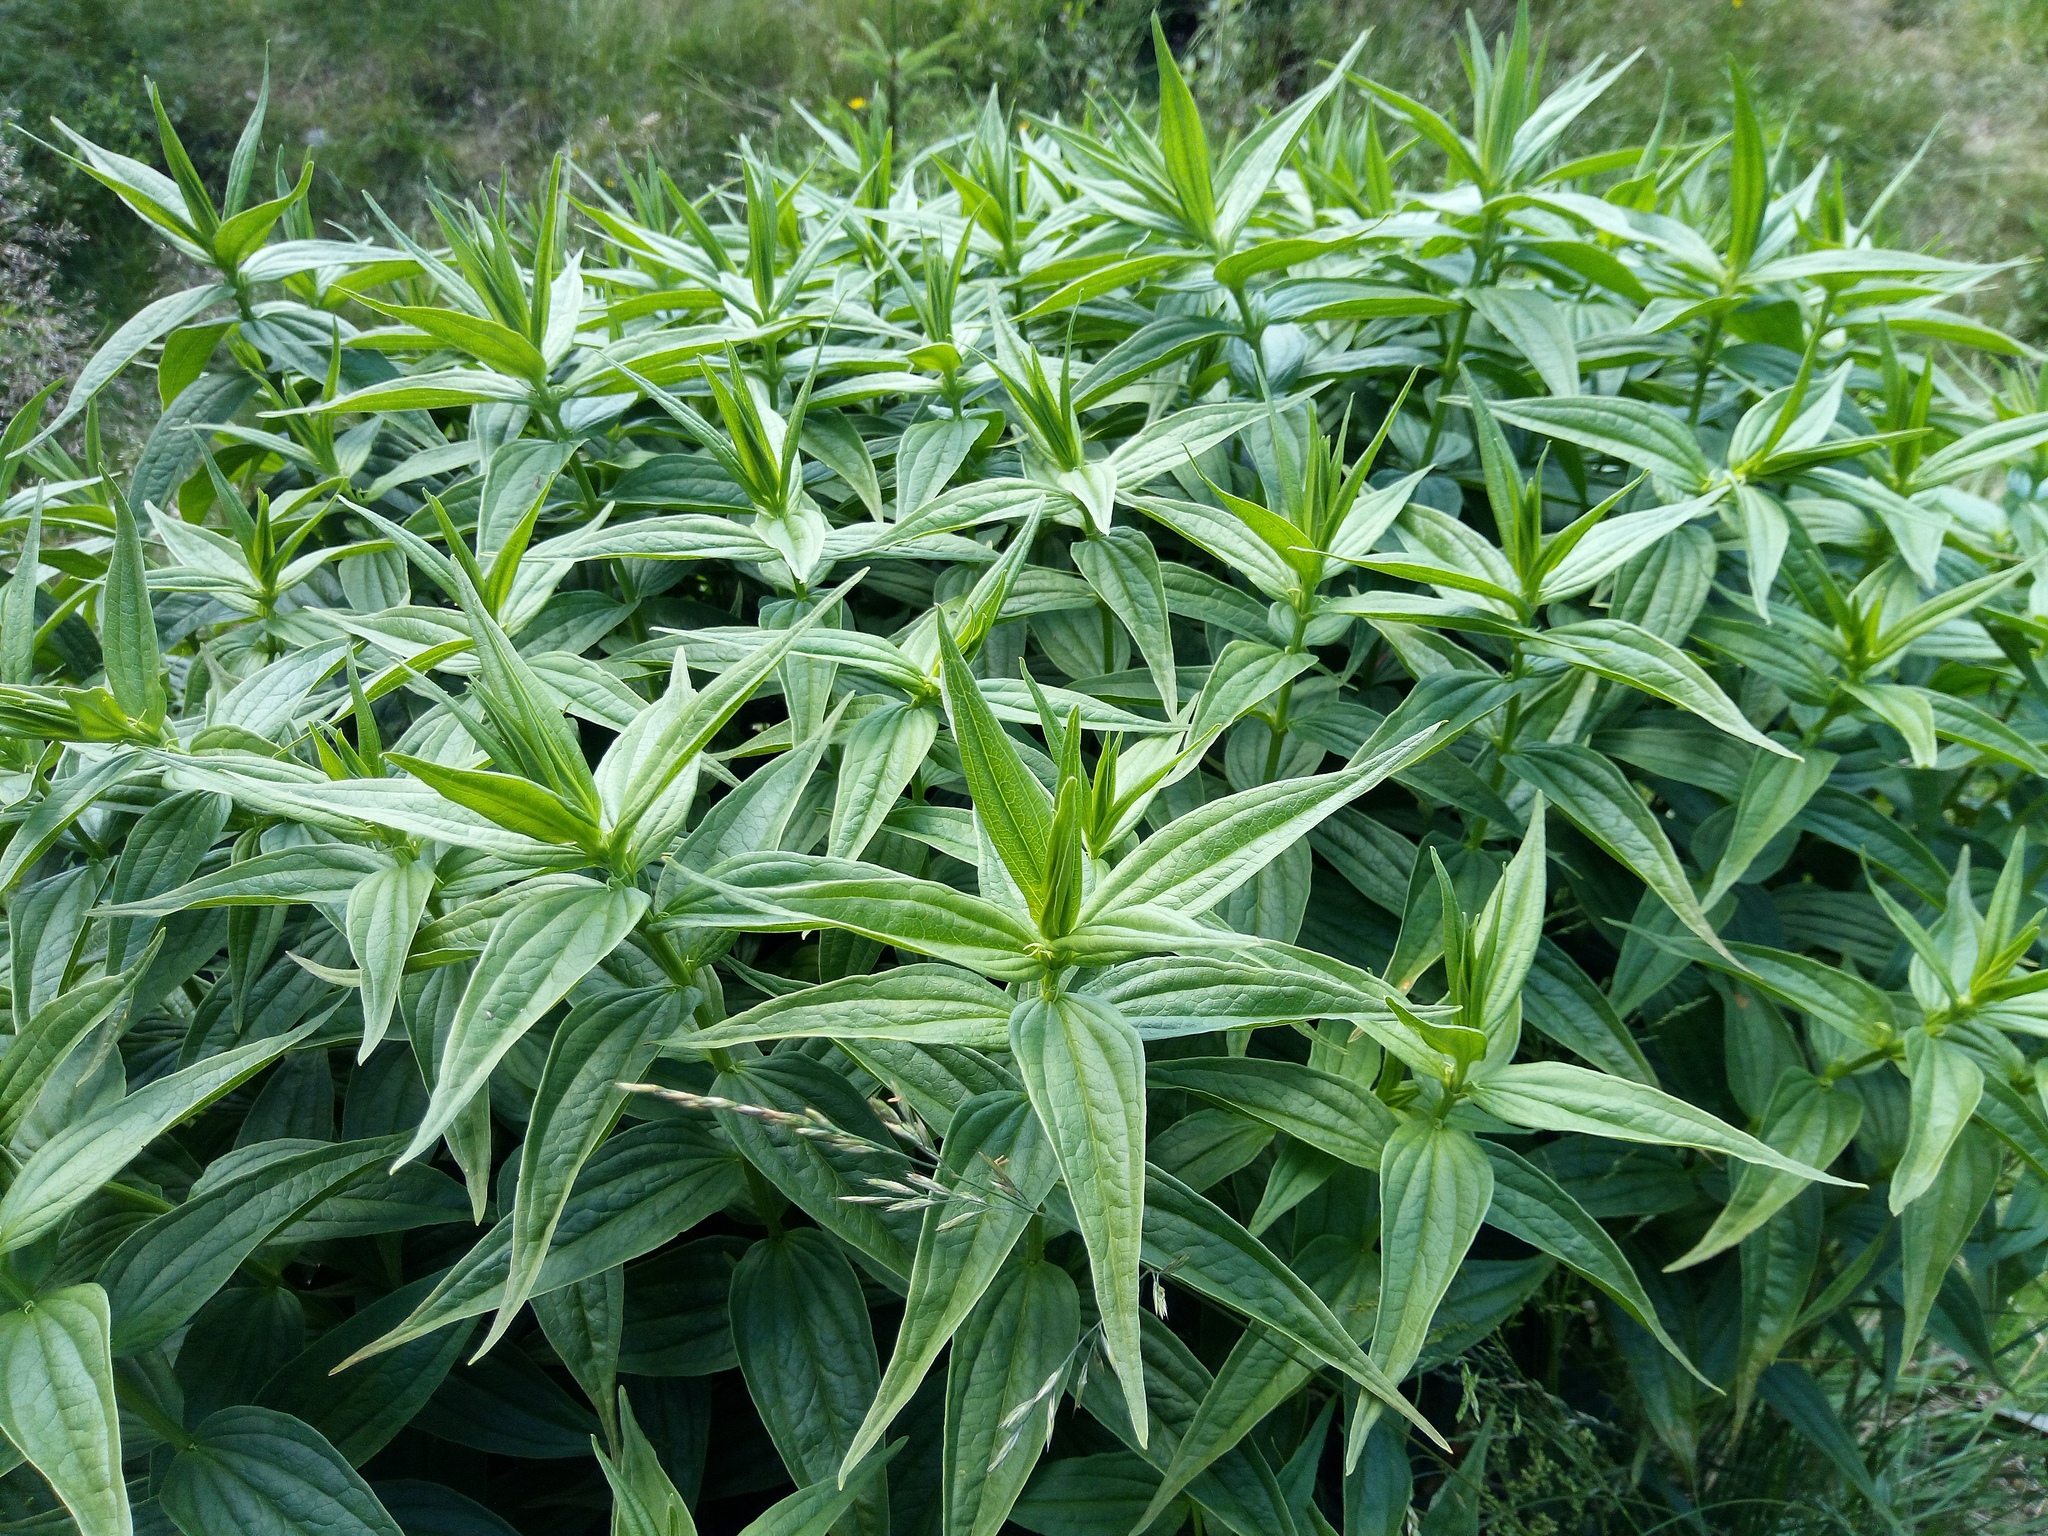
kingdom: Plantae
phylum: Tracheophyta
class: Magnoliopsida
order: Gentianales
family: Gentianaceae
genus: Gentiana
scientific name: Gentiana asclepiadea
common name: Willow gentian
